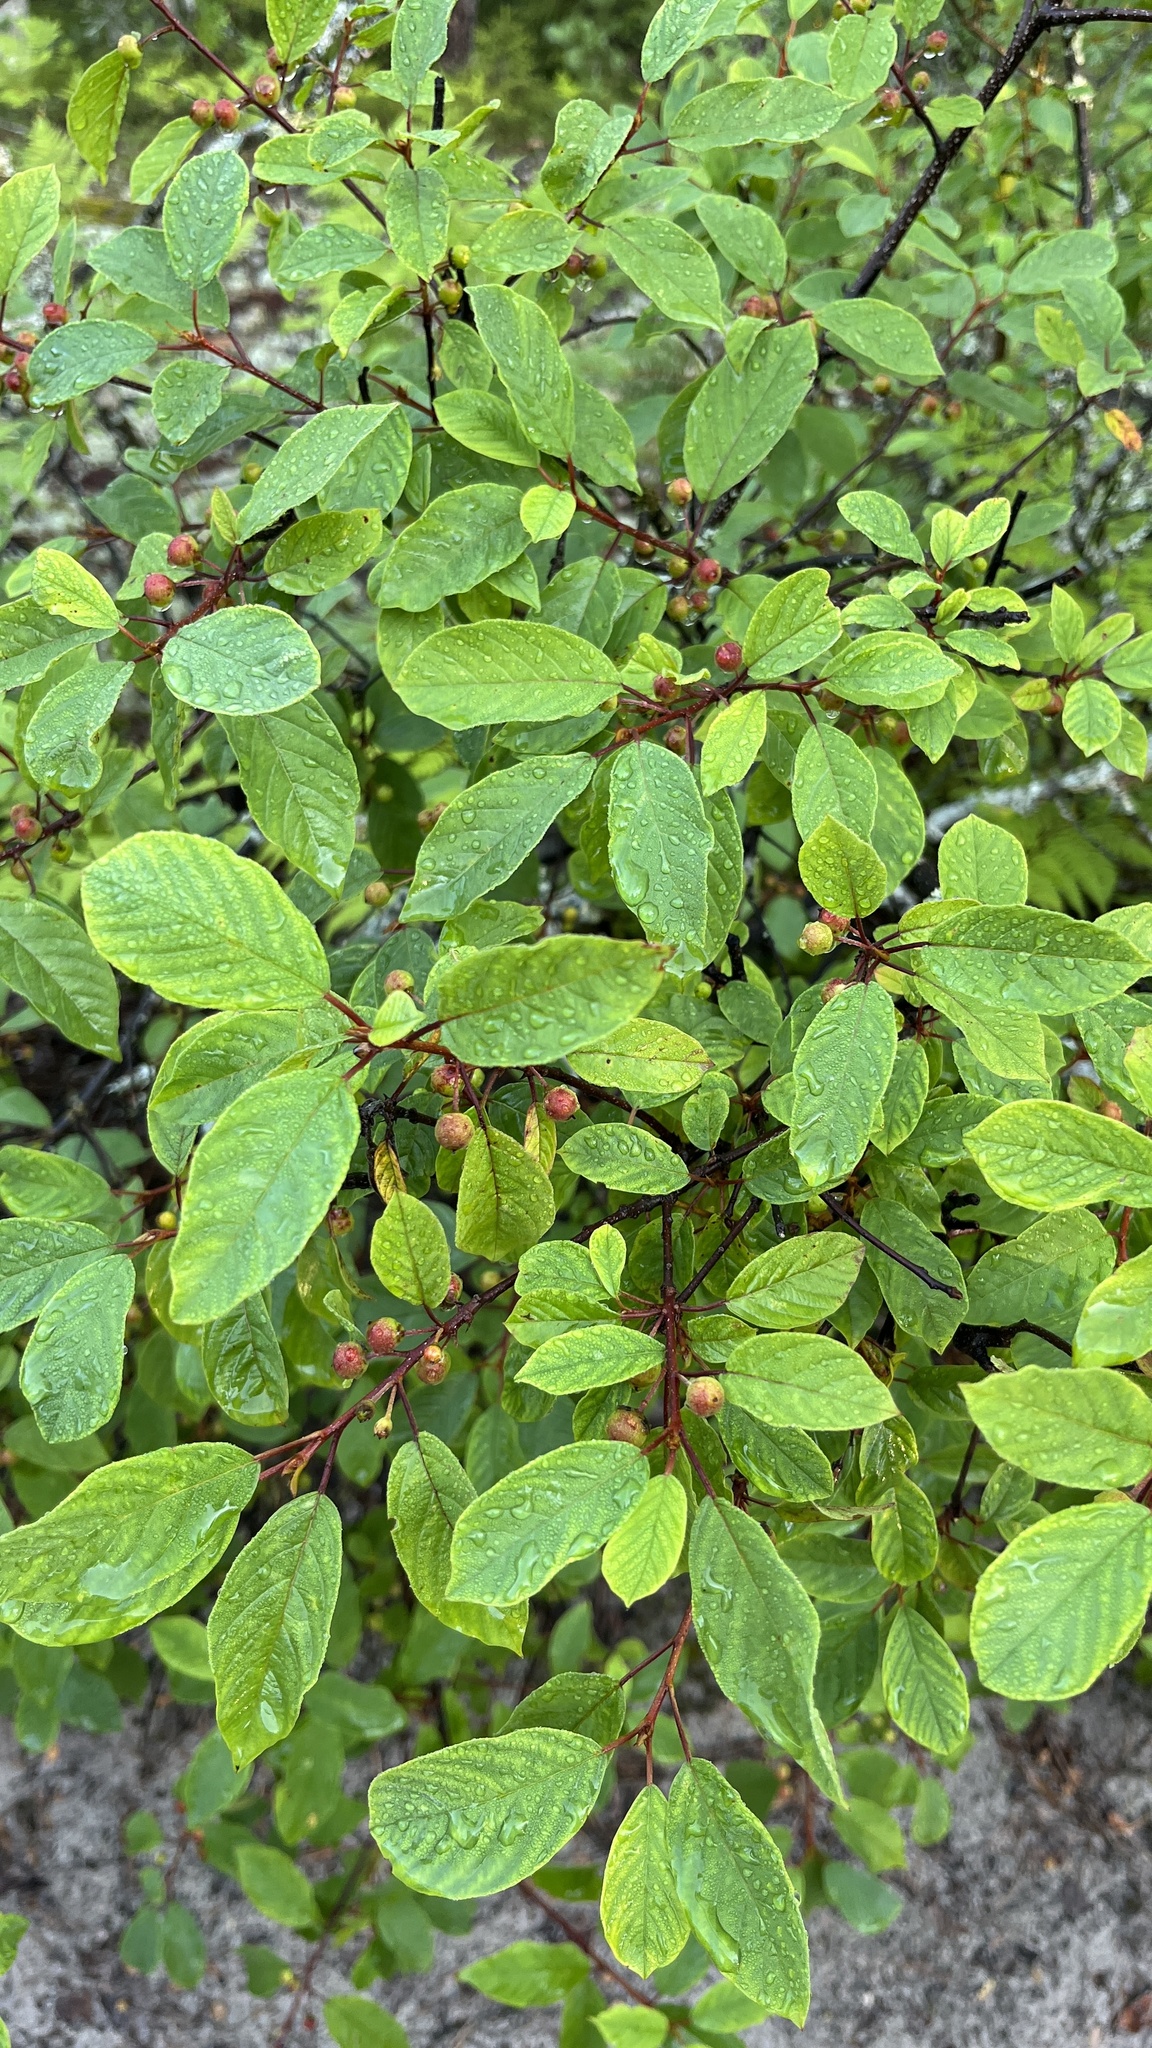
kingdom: Plantae
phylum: Tracheophyta
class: Magnoliopsida
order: Rosales
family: Rhamnaceae
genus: Frangula
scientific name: Frangula alnus
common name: Alder buckthorn
